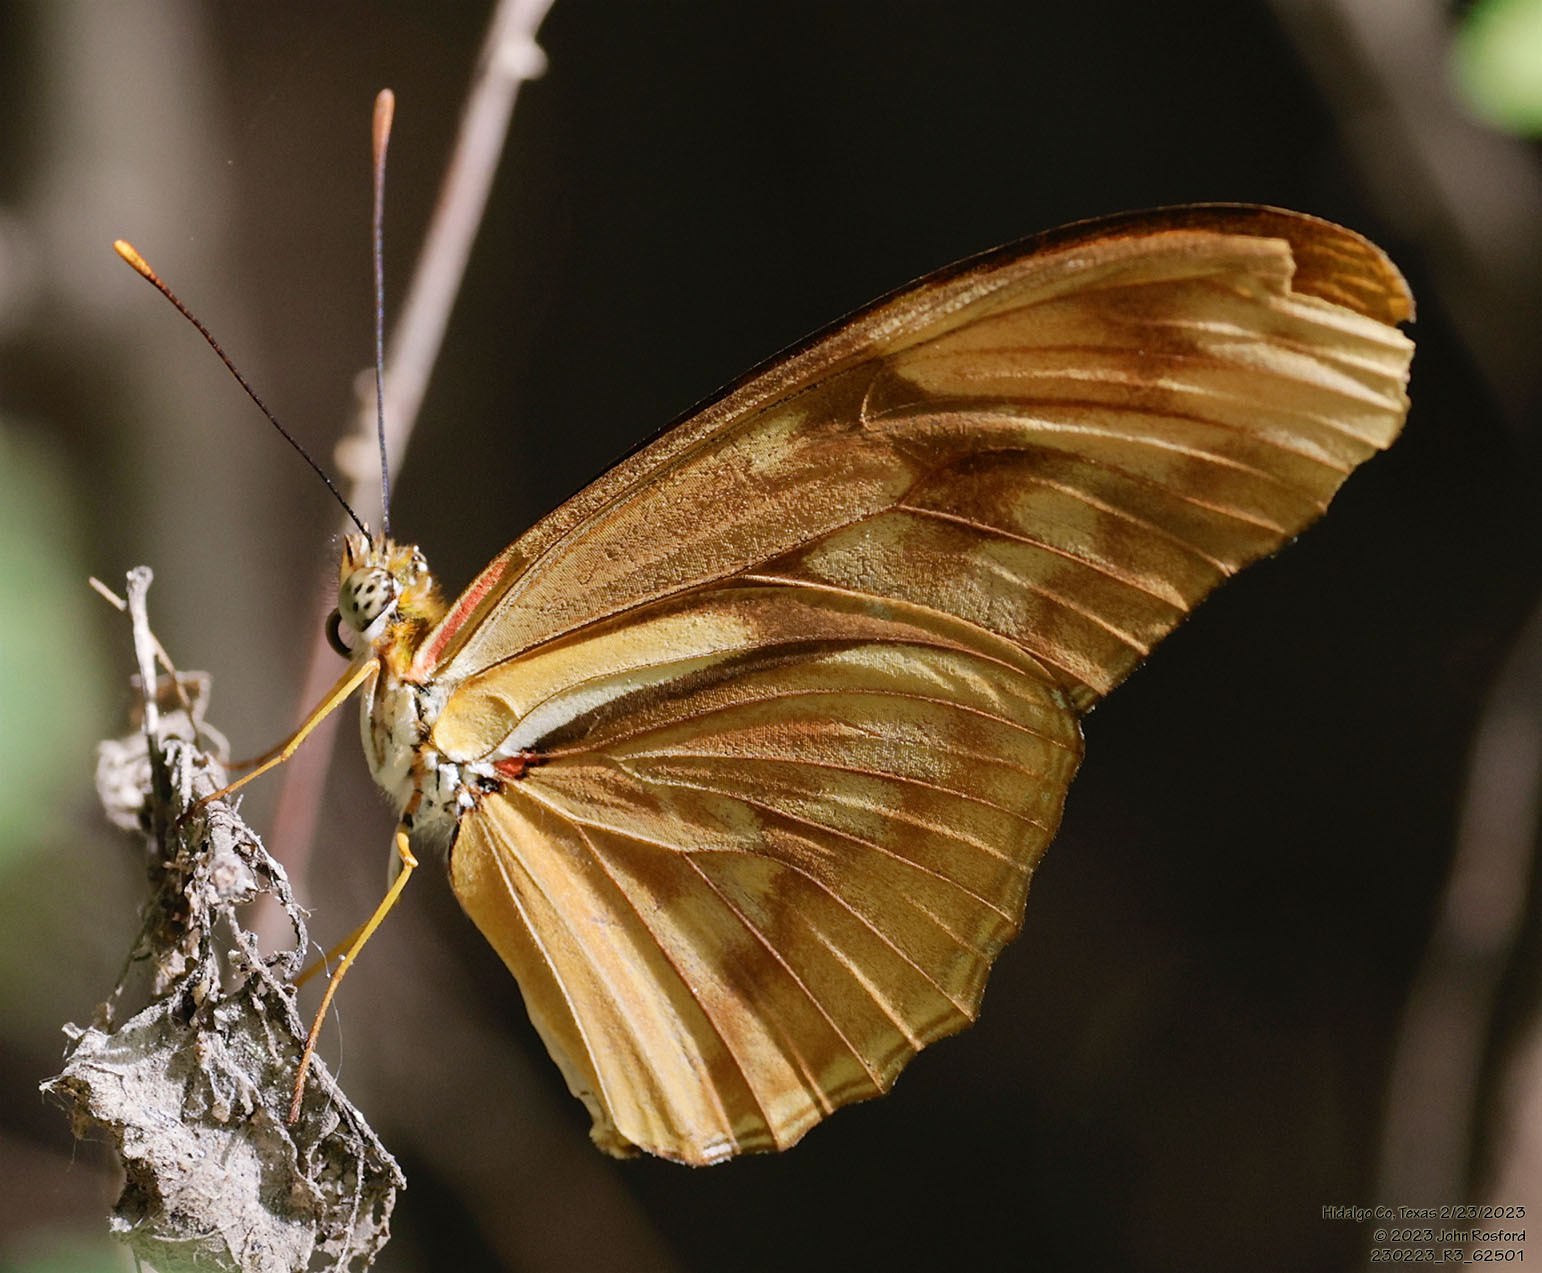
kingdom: Animalia
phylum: Arthropoda
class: Insecta
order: Lepidoptera
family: Nymphalidae
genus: Dryas
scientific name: Dryas iulia
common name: Flambeau
